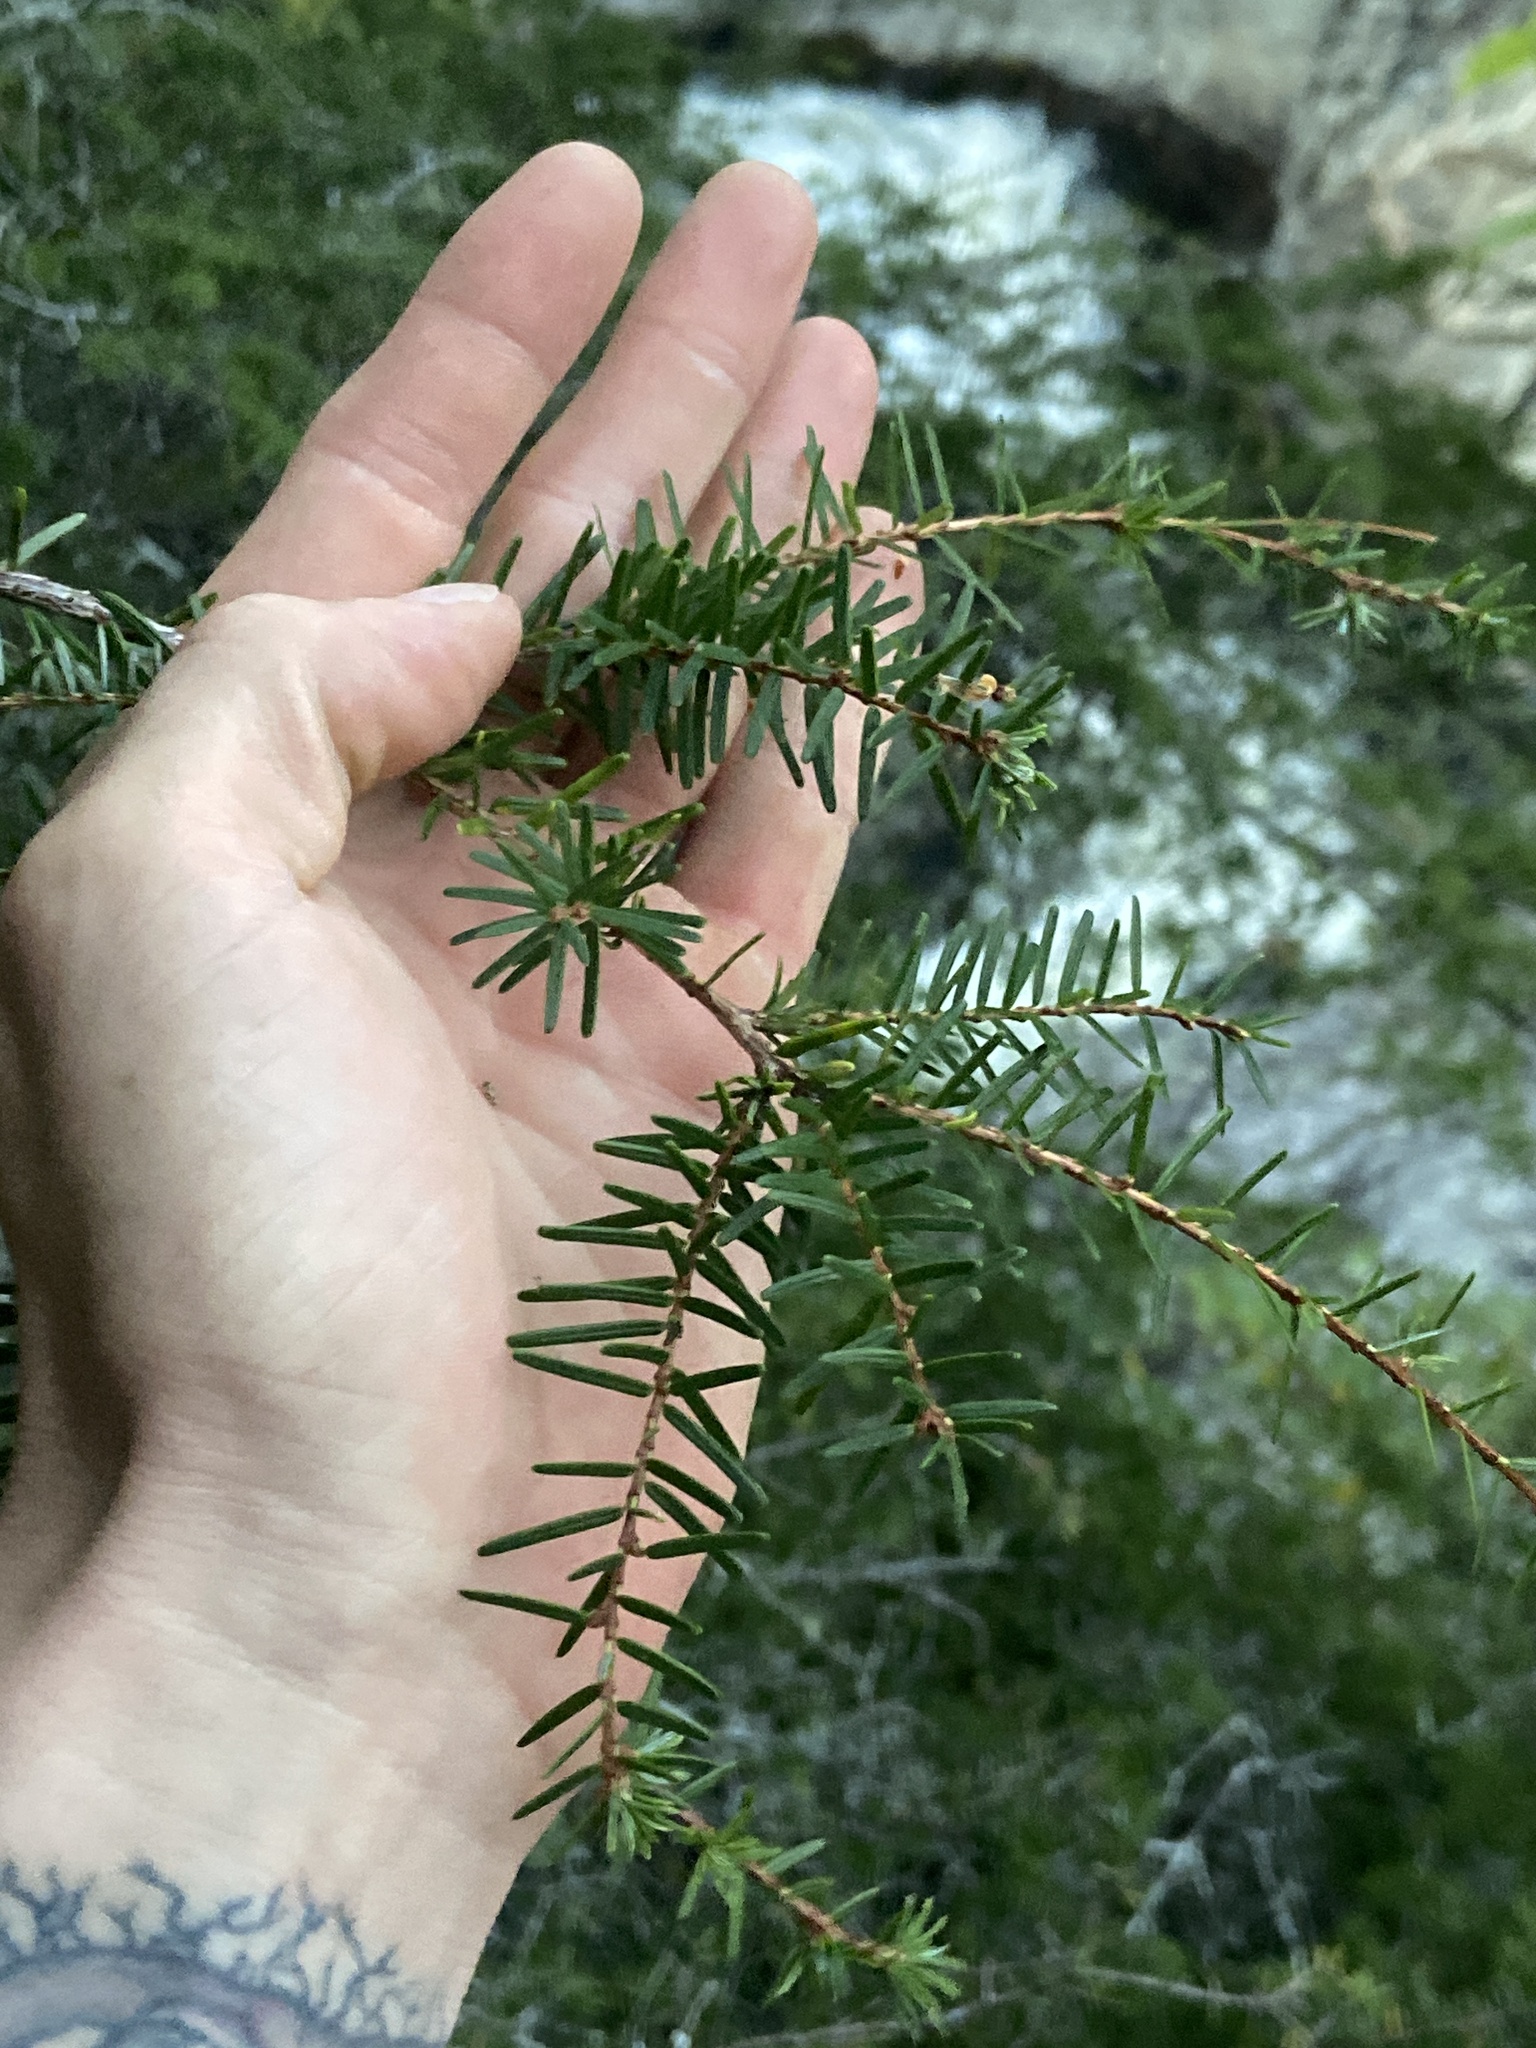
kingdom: Plantae
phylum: Tracheophyta
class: Pinopsida
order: Pinales
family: Pinaceae
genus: Tsuga
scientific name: Tsuga caroliniana
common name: Carolina hemlock
